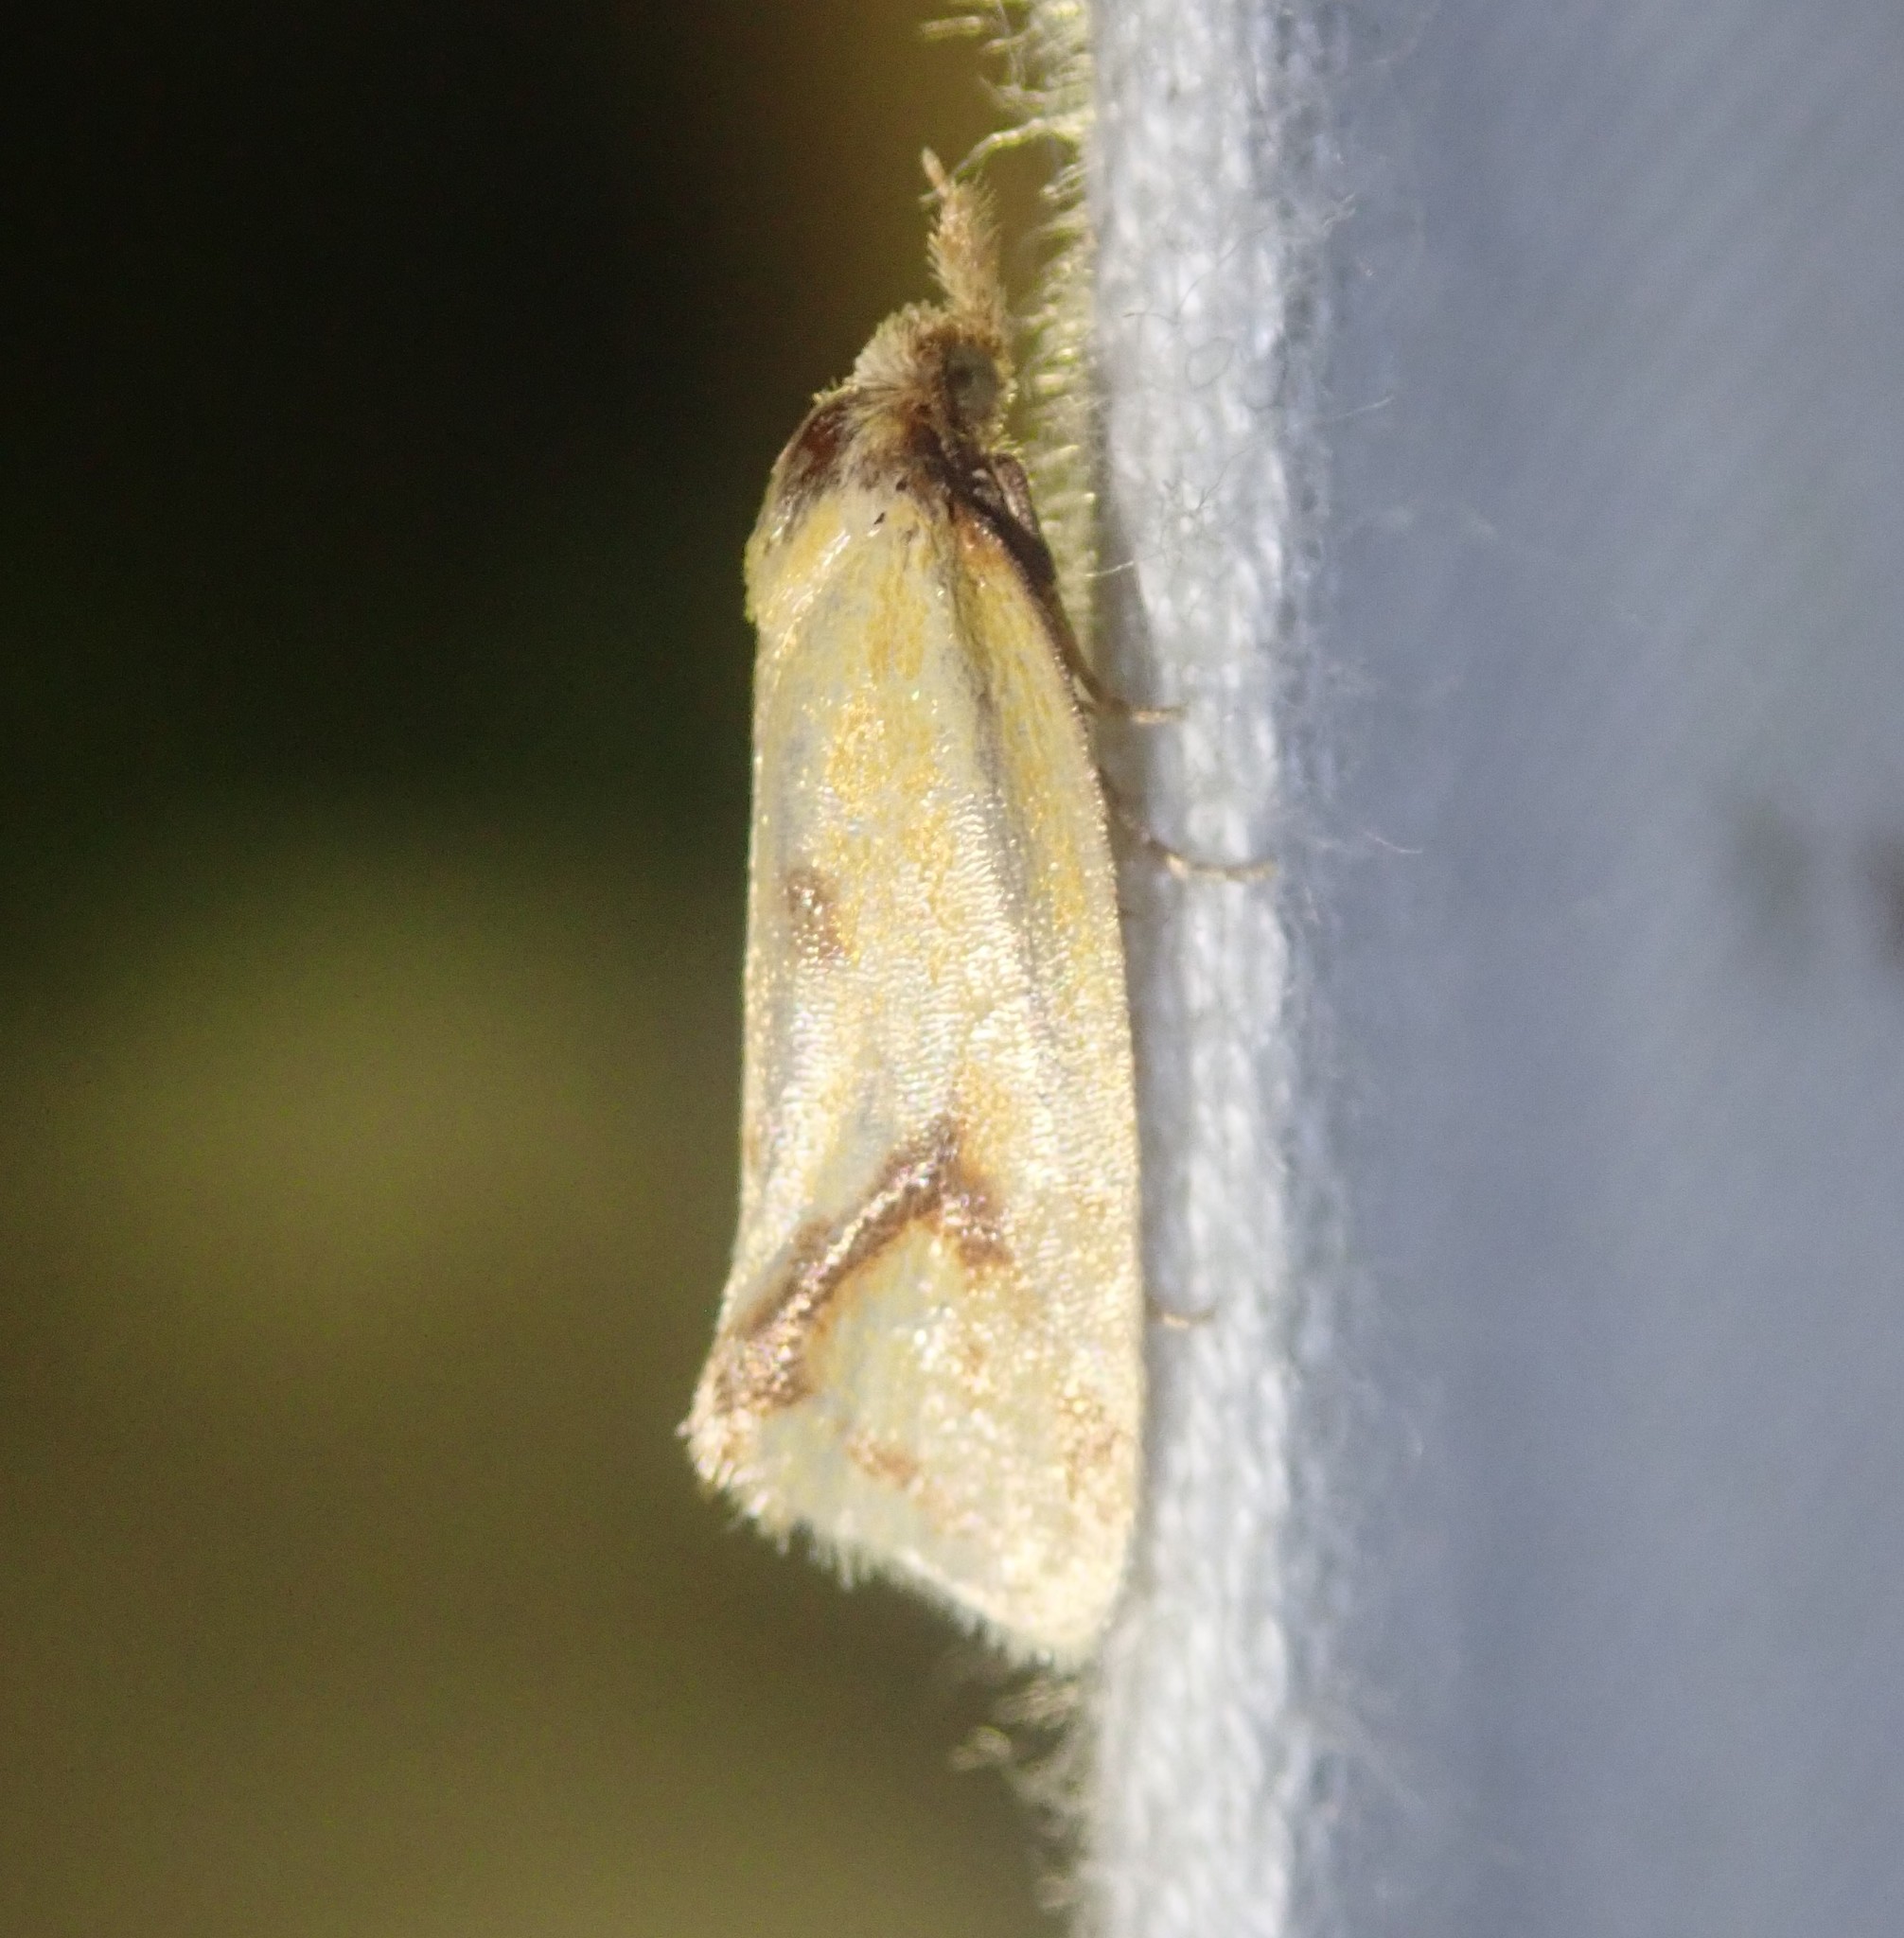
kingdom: Animalia
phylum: Arthropoda
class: Insecta
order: Lepidoptera
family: Tortricidae
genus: Agapeta
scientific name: Agapeta hamana
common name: Common yellow conch
